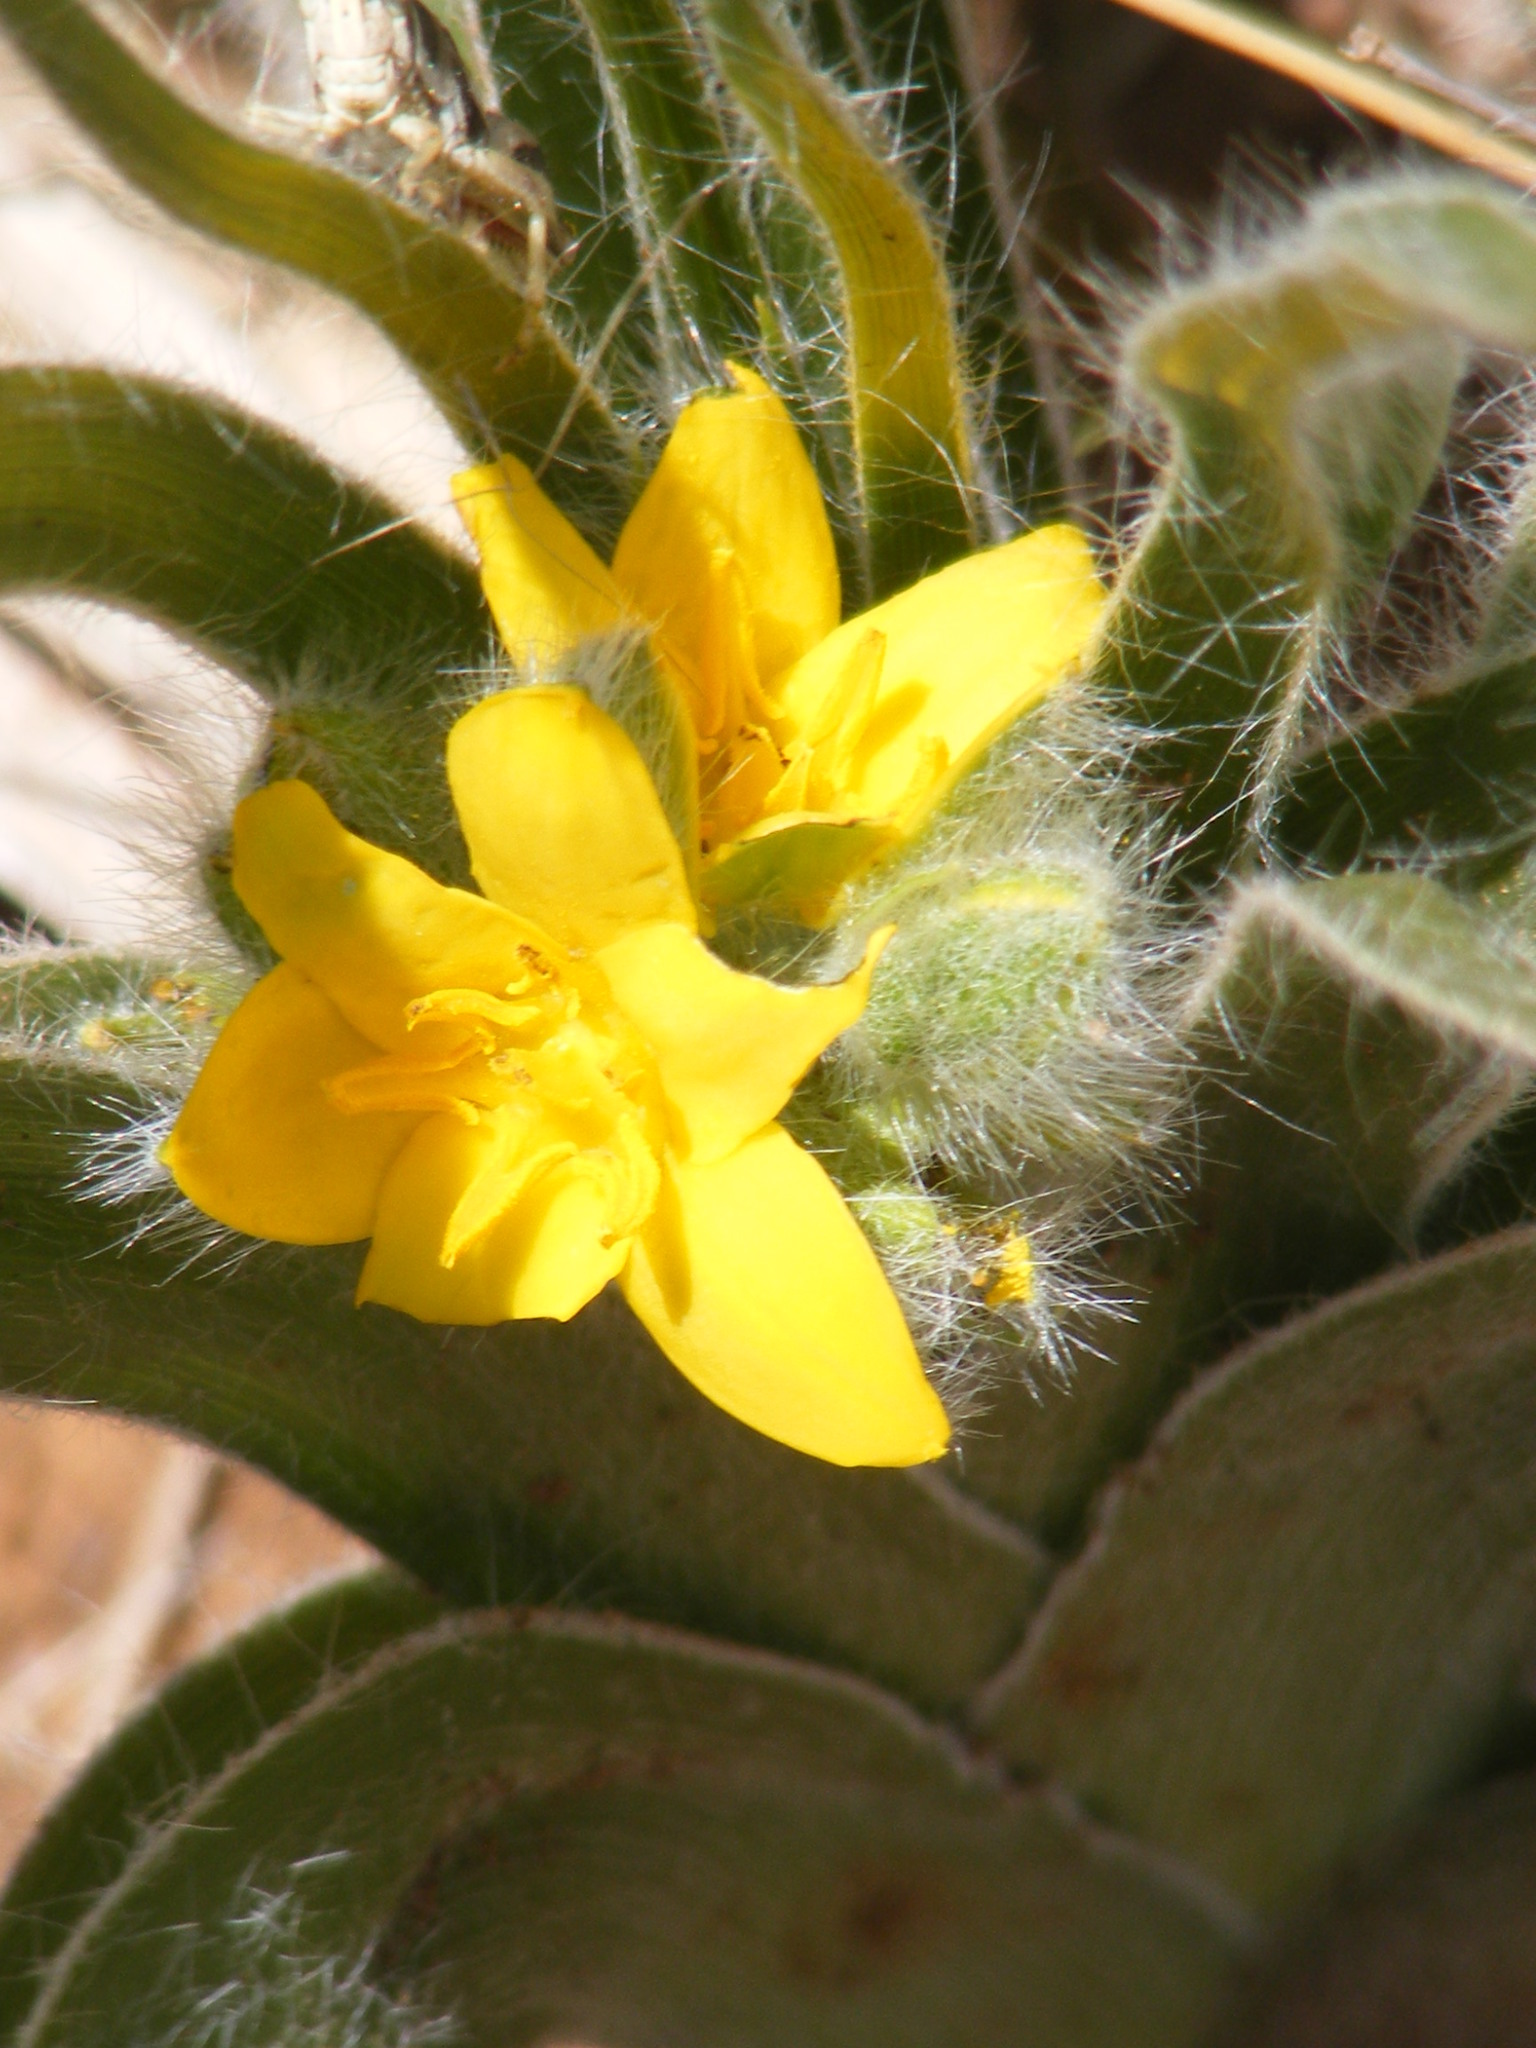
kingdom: Plantae
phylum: Tracheophyta
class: Liliopsida
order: Asparagales
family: Hypoxidaceae
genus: Hypoxis
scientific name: Hypoxis hemerocallidea
